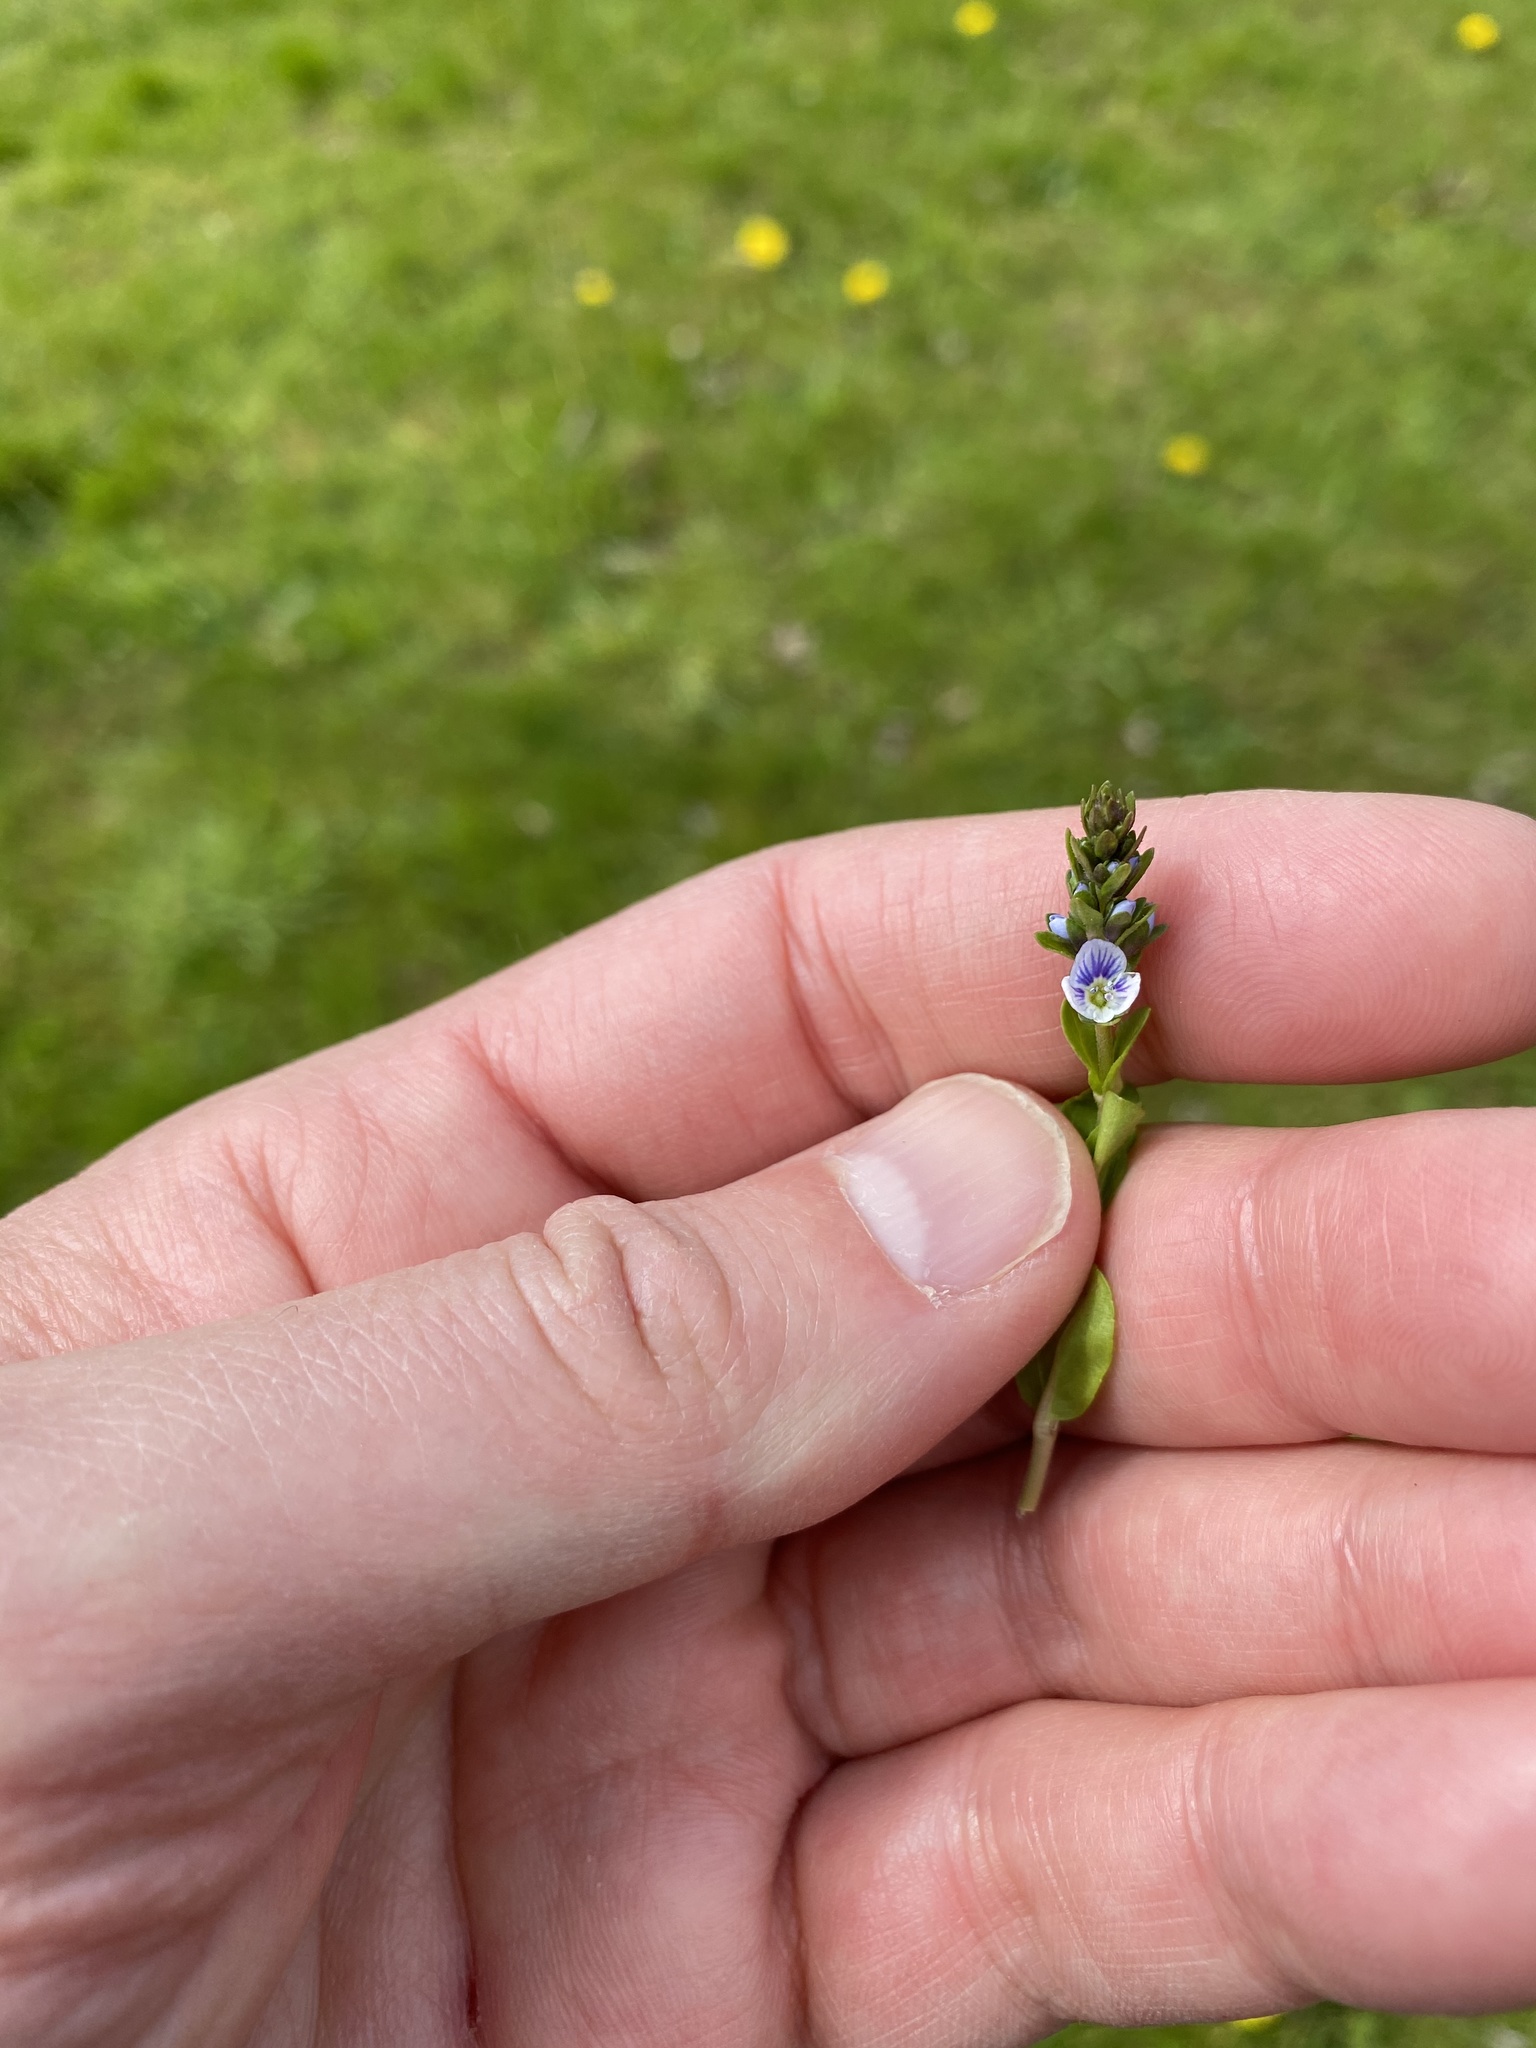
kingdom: Plantae
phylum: Tracheophyta
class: Magnoliopsida
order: Lamiales
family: Plantaginaceae
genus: Veronica
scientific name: Veronica serpyllifolia
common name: Thyme-leaved speedwell
